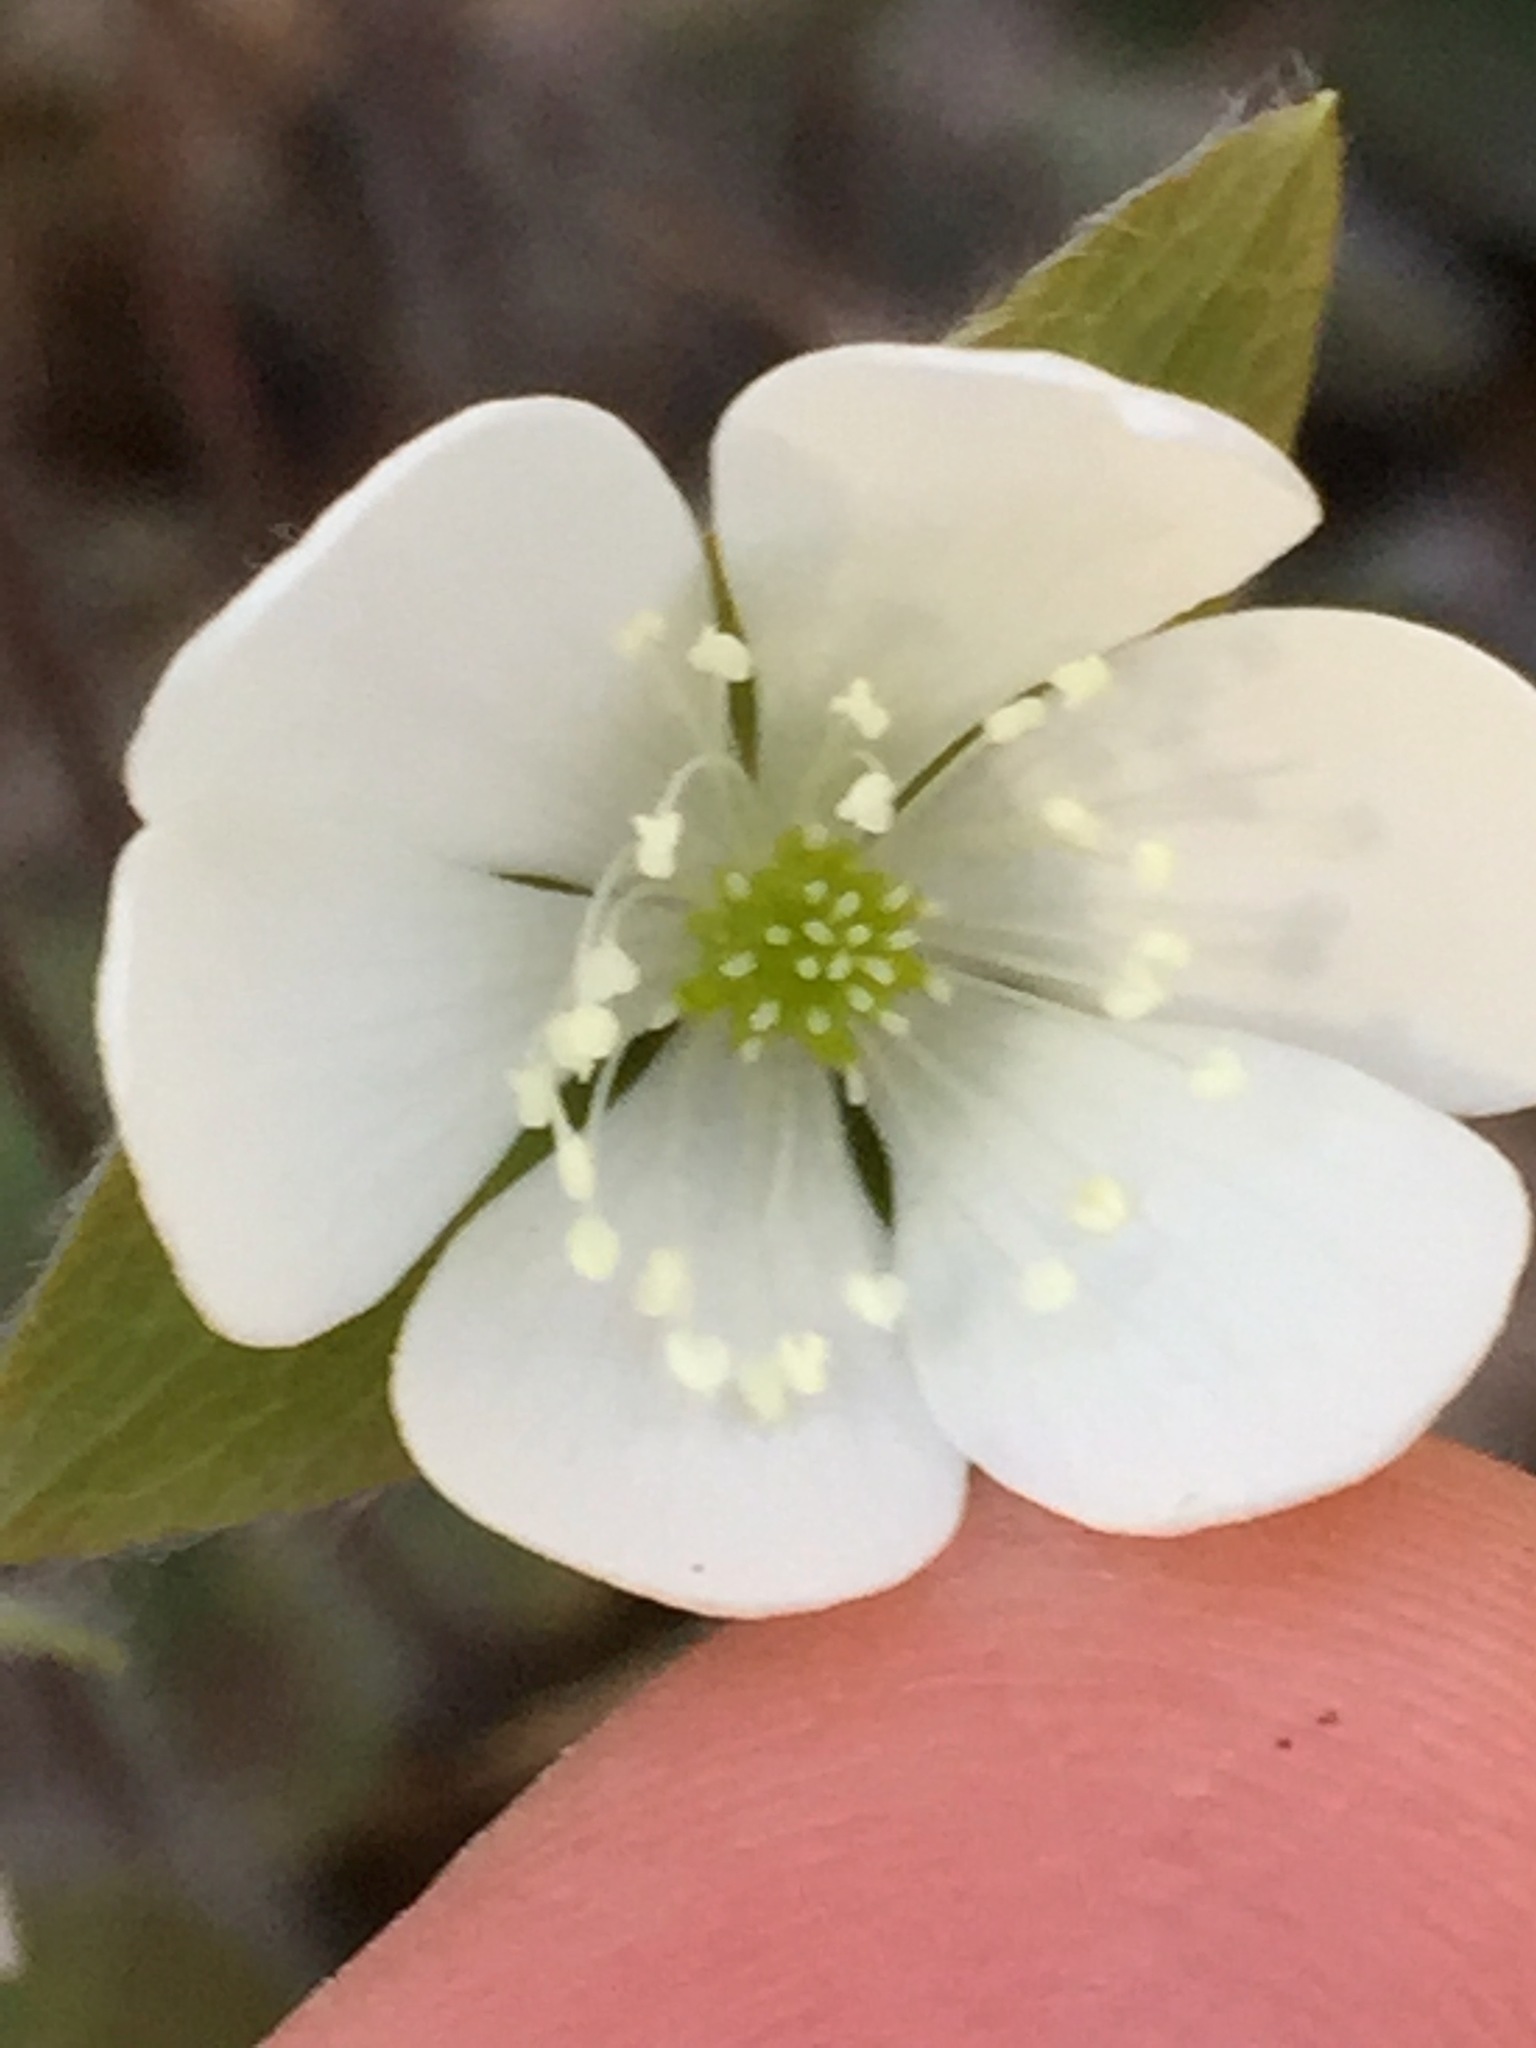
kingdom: Plantae
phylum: Tracheophyta
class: Magnoliopsida
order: Ranunculales
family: Ranunculaceae
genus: Hepatica
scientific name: Hepatica acutiloba
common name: Sharp-lobed hepatica
